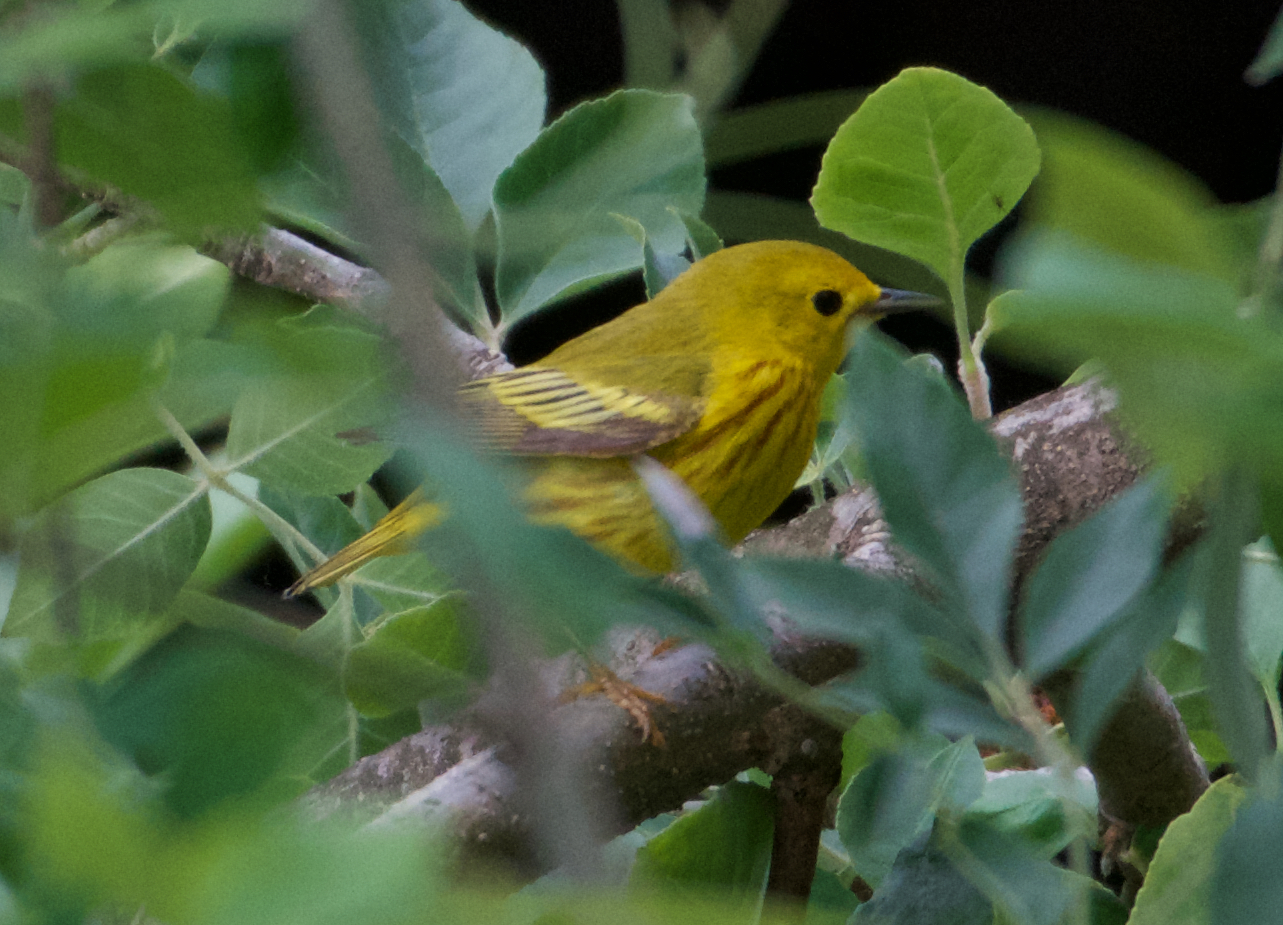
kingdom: Animalia
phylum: Chordata
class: Aves
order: Passeriformes
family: Parulidae
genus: Setophaga
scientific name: Setophaga petechia
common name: Yellow warbler
